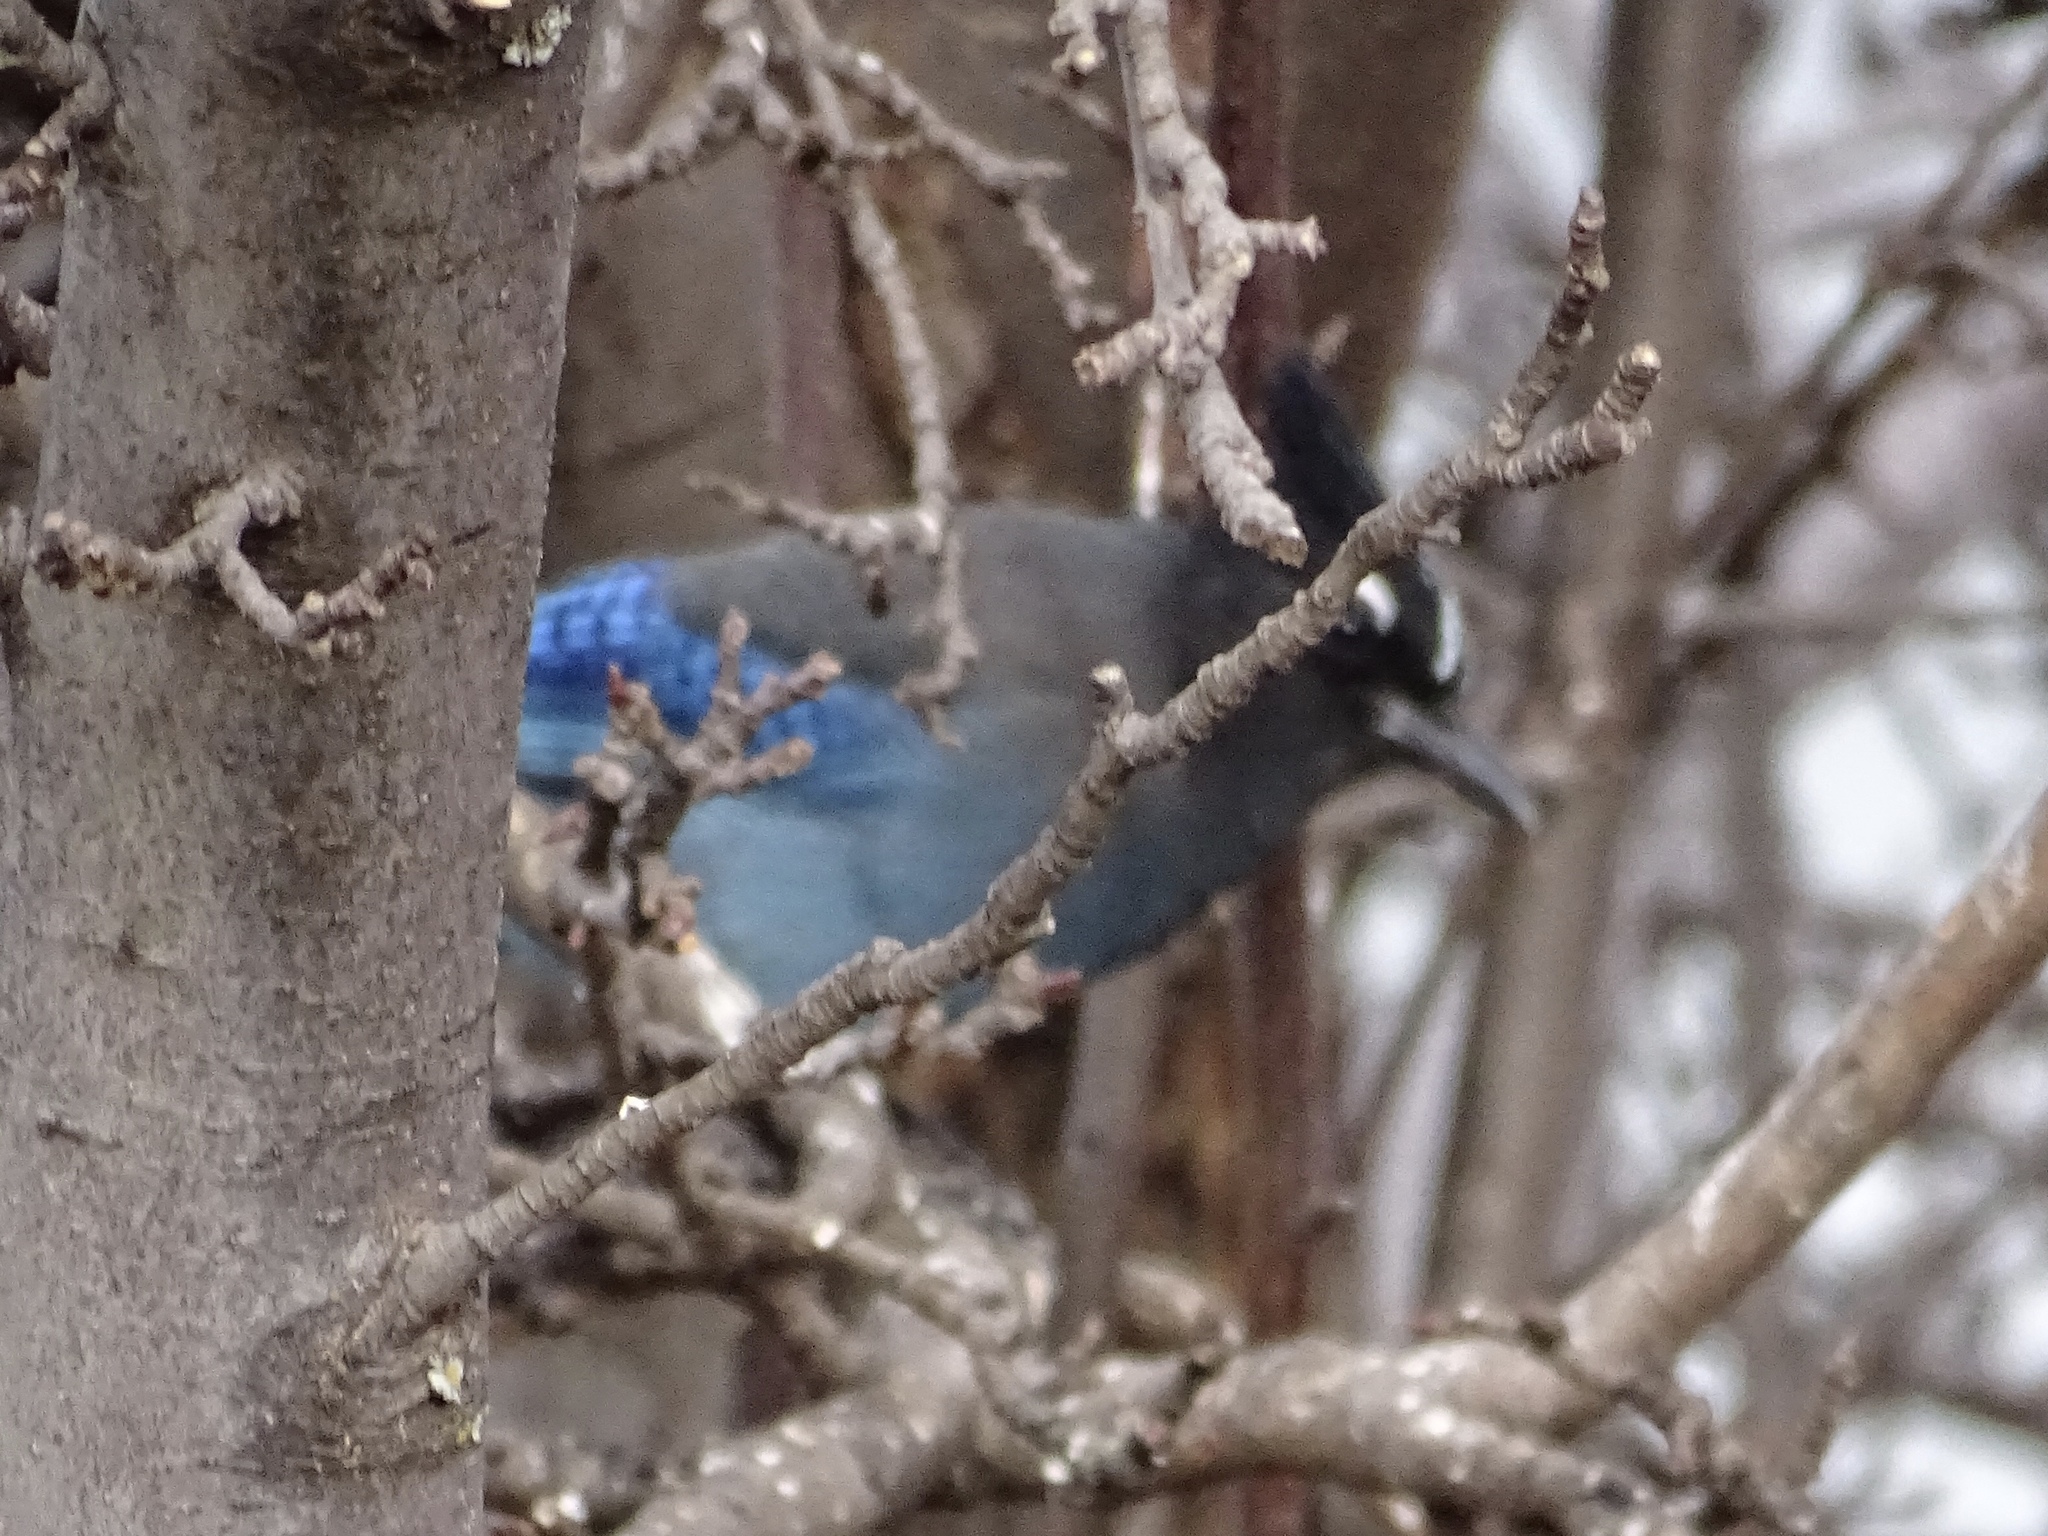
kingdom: Animalia
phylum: Chordata
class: Aves
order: Passeriformes
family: Corvidae
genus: Cyanocitta
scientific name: Cyanocitta stelleri
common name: Steller's jay
